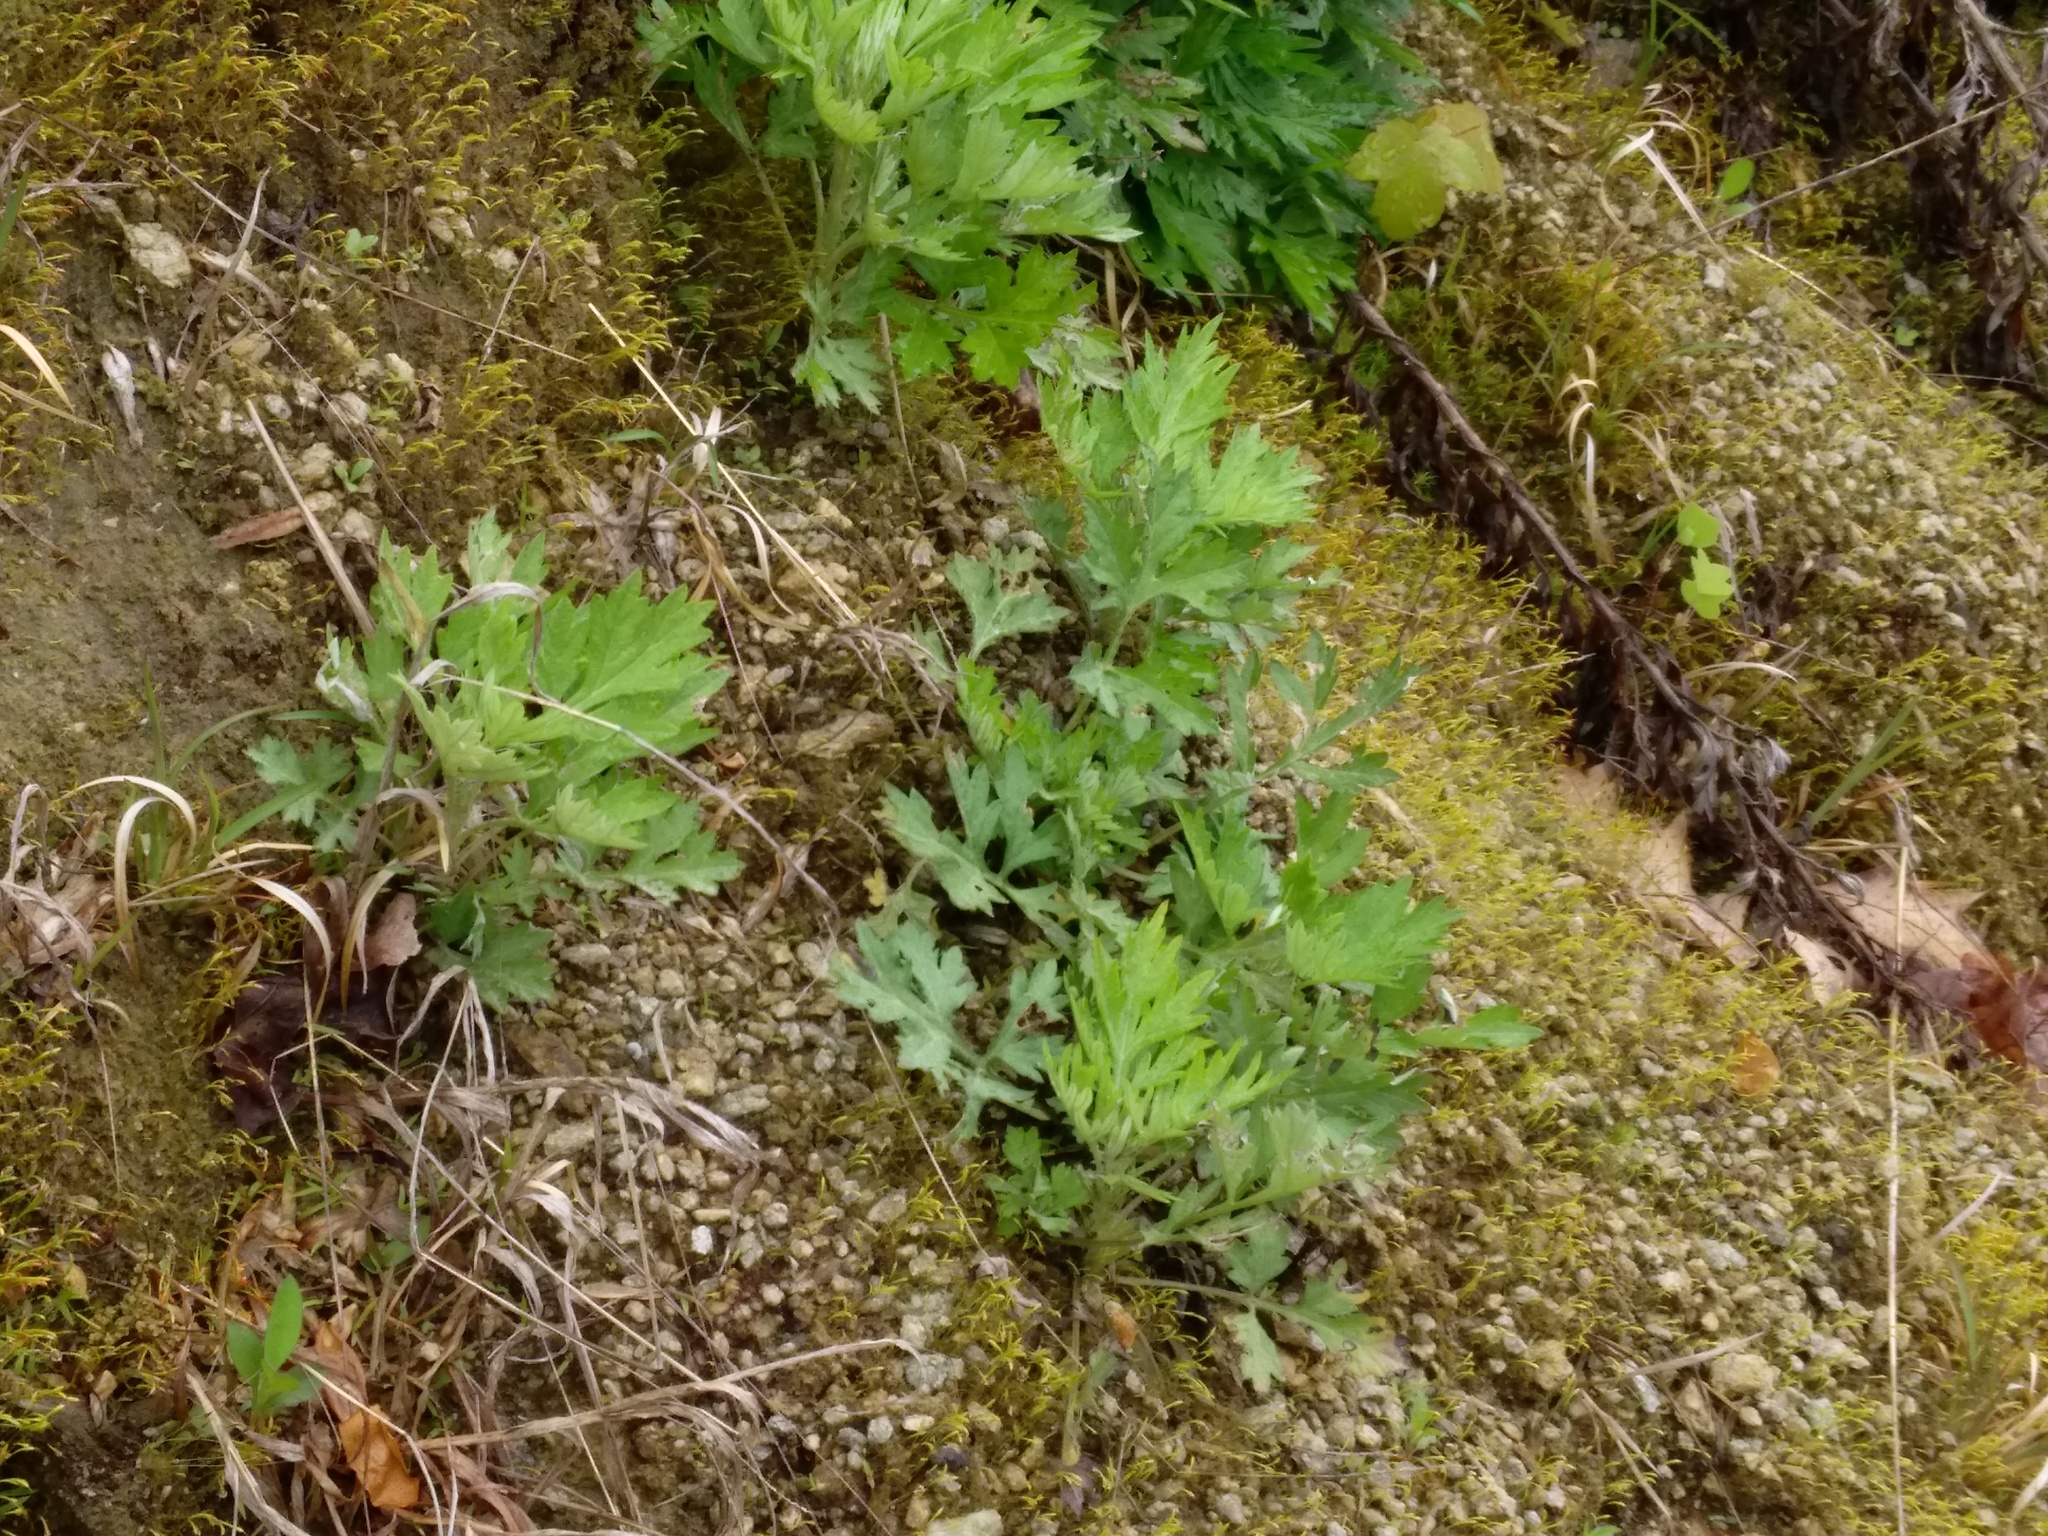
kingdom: Plantae
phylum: Tracheophyta
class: Magnoliopsida
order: Asterales
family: Asteraceae
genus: Artemisia
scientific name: Artemisia vulgaris
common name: Mugwort
